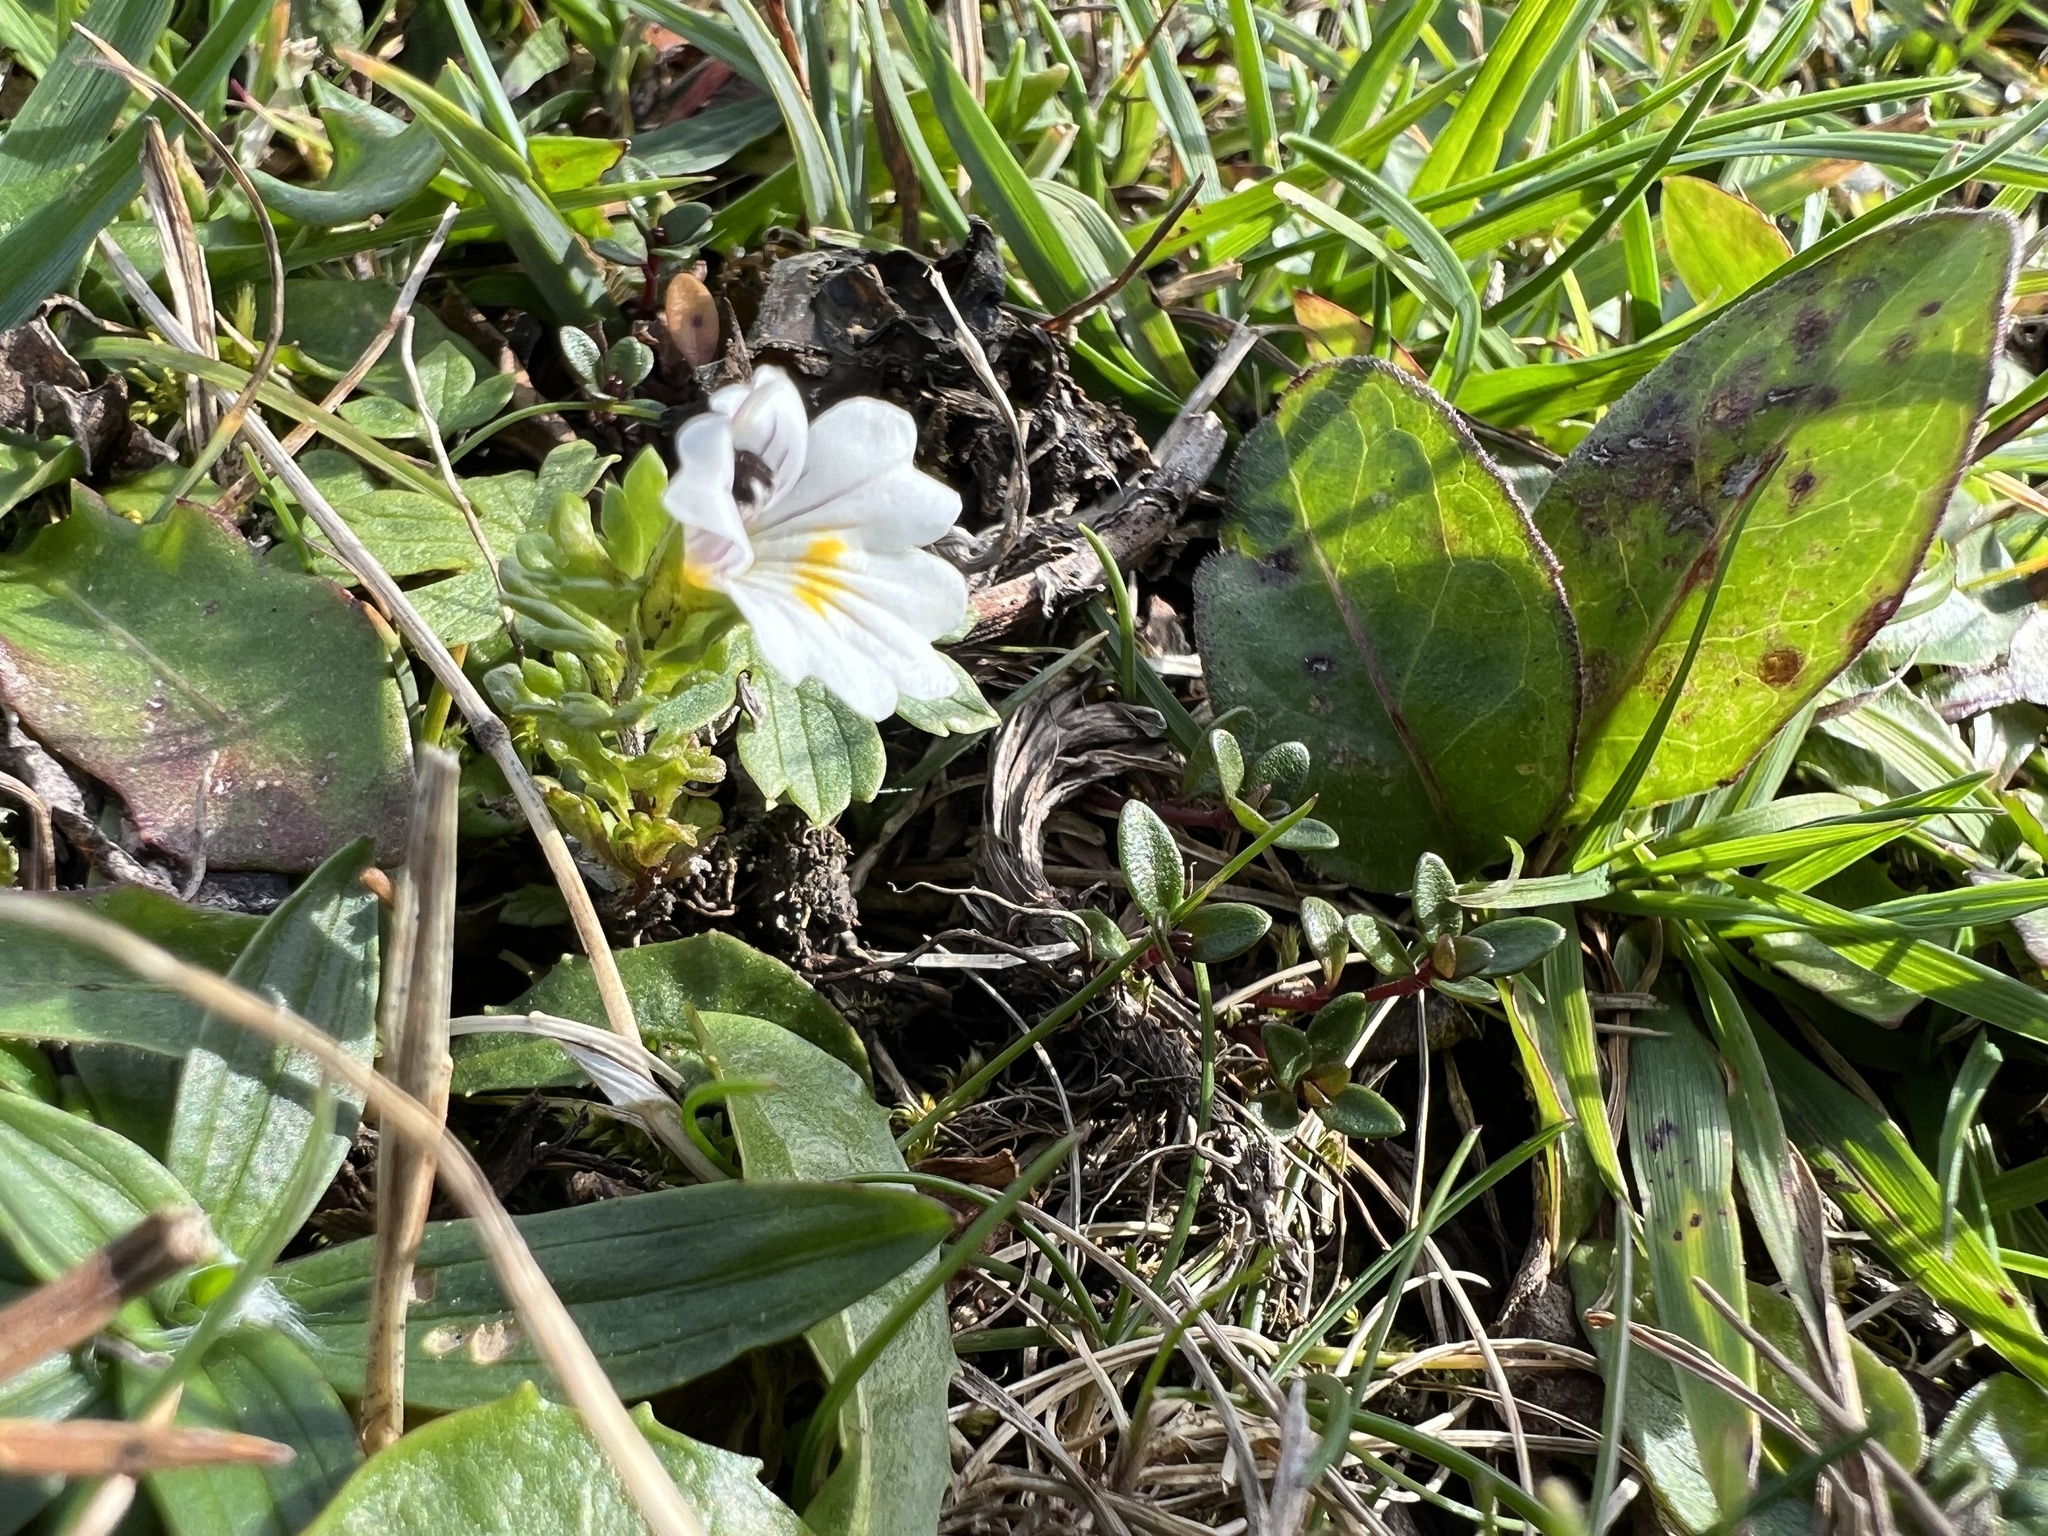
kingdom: Plantae
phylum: Tracheophyta
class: Magnoliopsida
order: Lamiales
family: Orobanchaceae
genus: Euphrasia
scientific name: Euphrasia officinalis
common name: Eyebright
